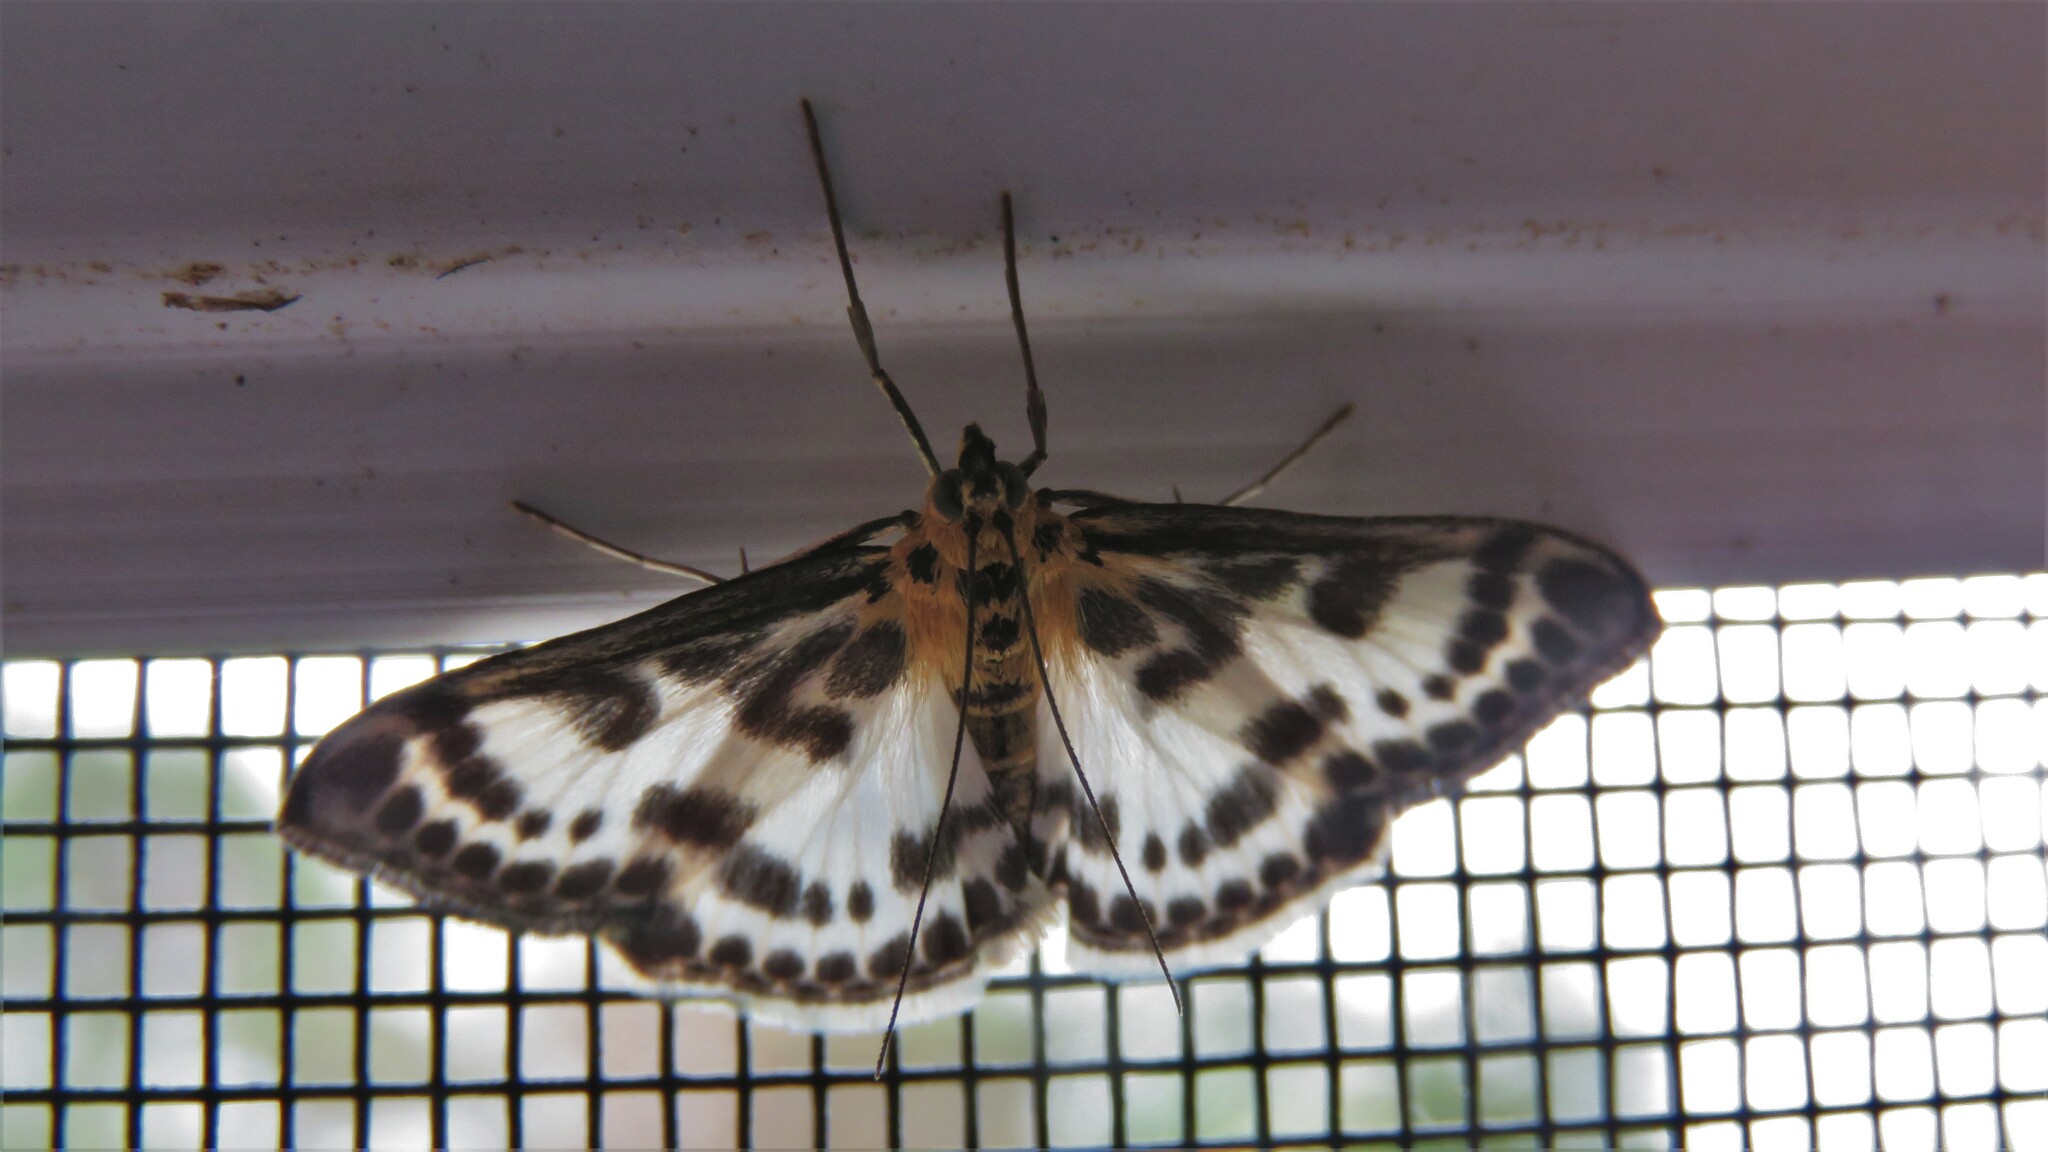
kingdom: Animalia
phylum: Arthropoda
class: Insecta
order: Lepidoptera
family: Crambidae
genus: Anania
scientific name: Anania hortulata
